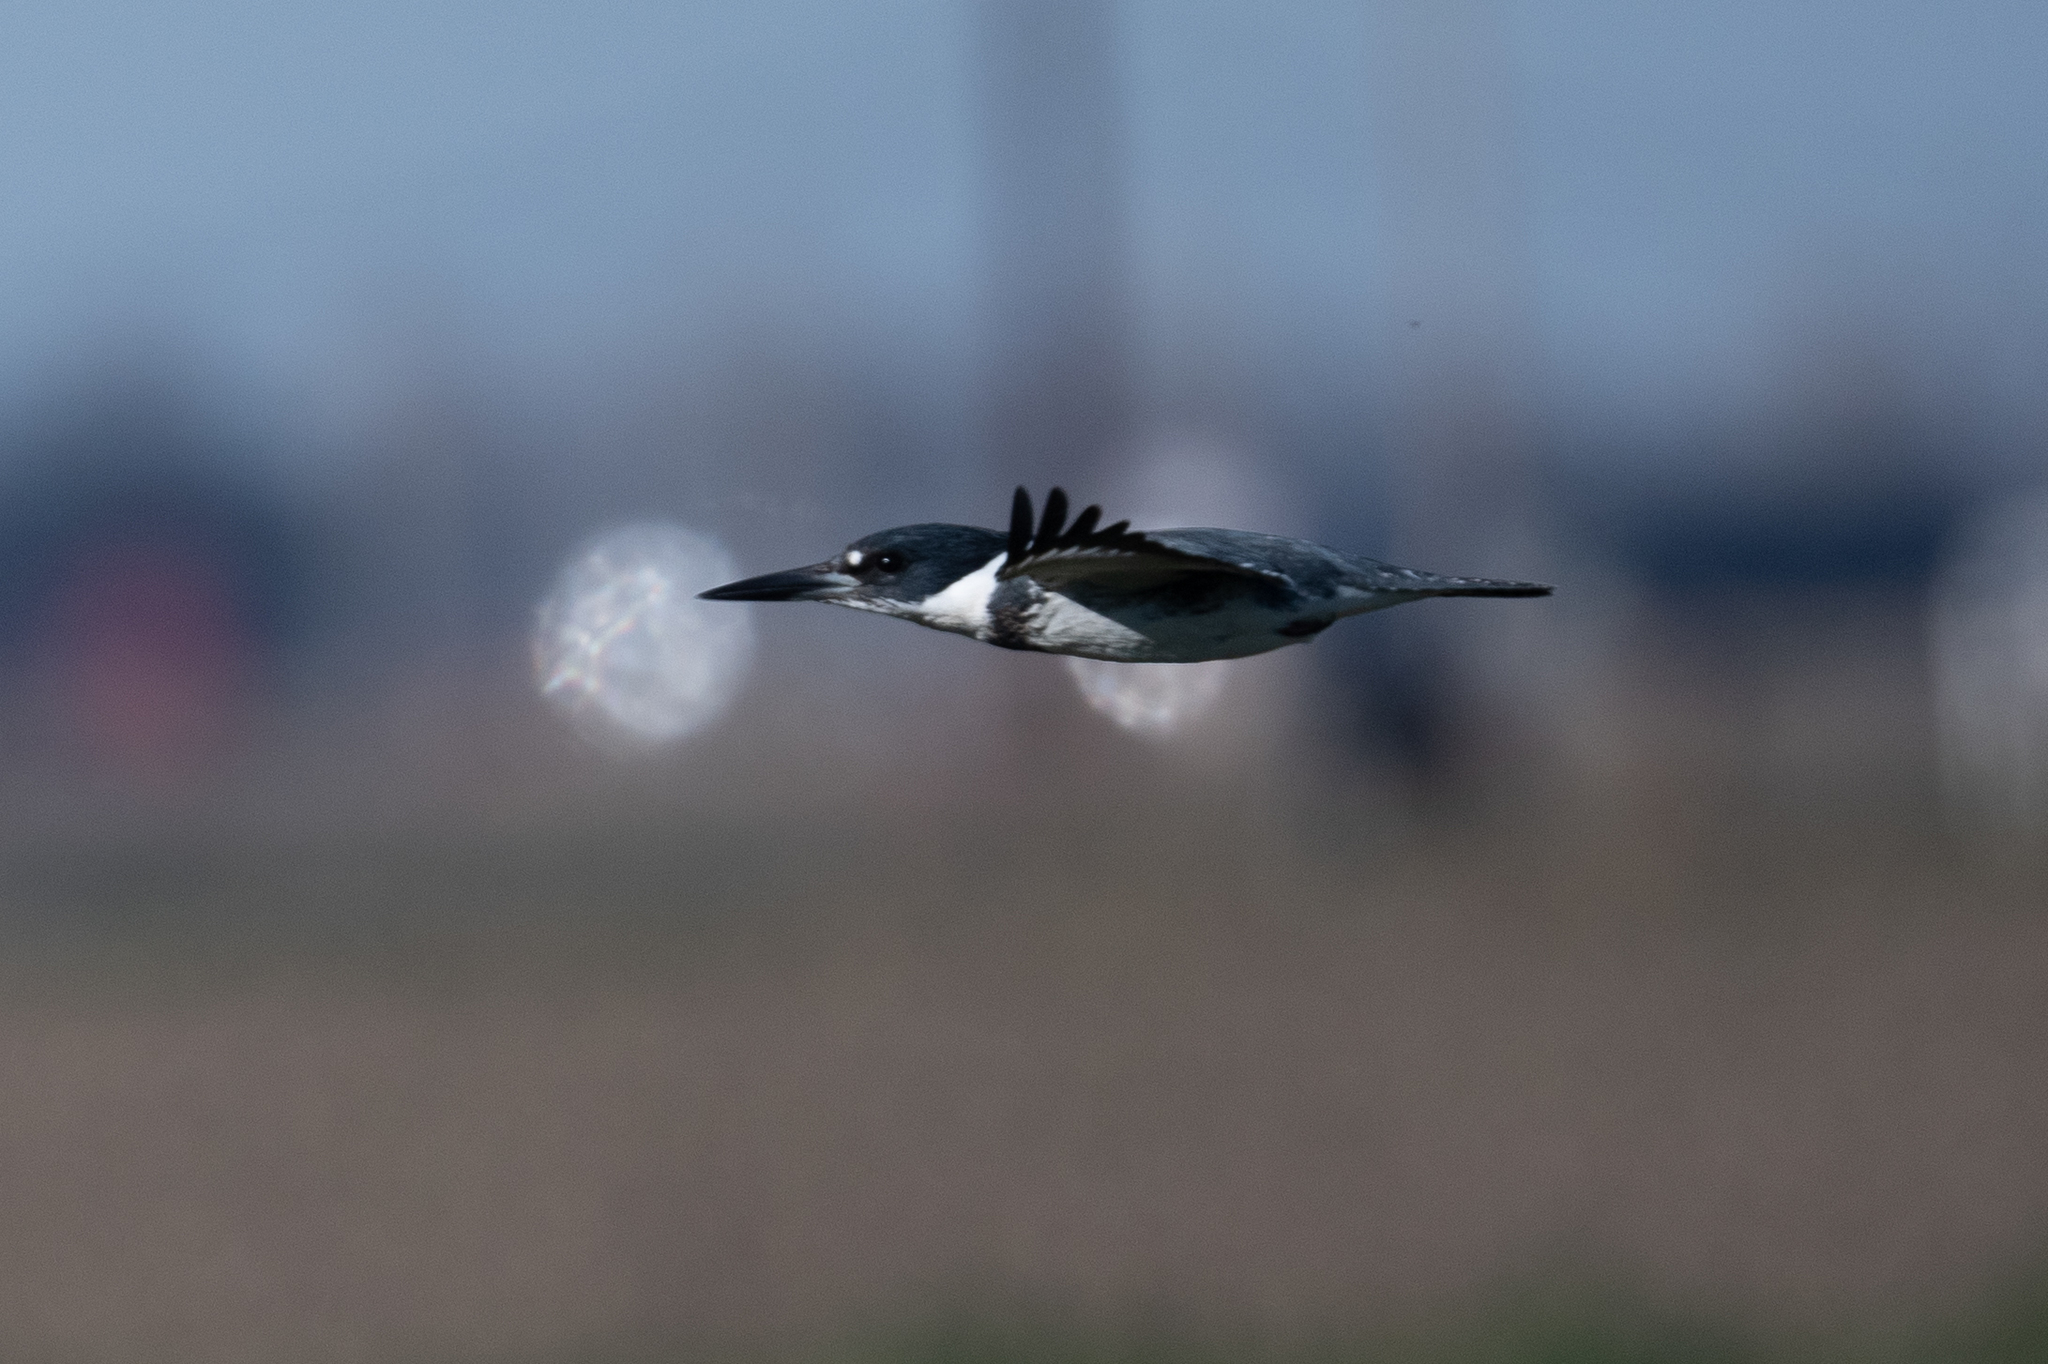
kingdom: Animalia
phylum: Chordata
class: Aves
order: Coraciiformes
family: Alcedinidae
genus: Megaceryle
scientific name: Megaceryle alcyon
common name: Belted kingfisher
